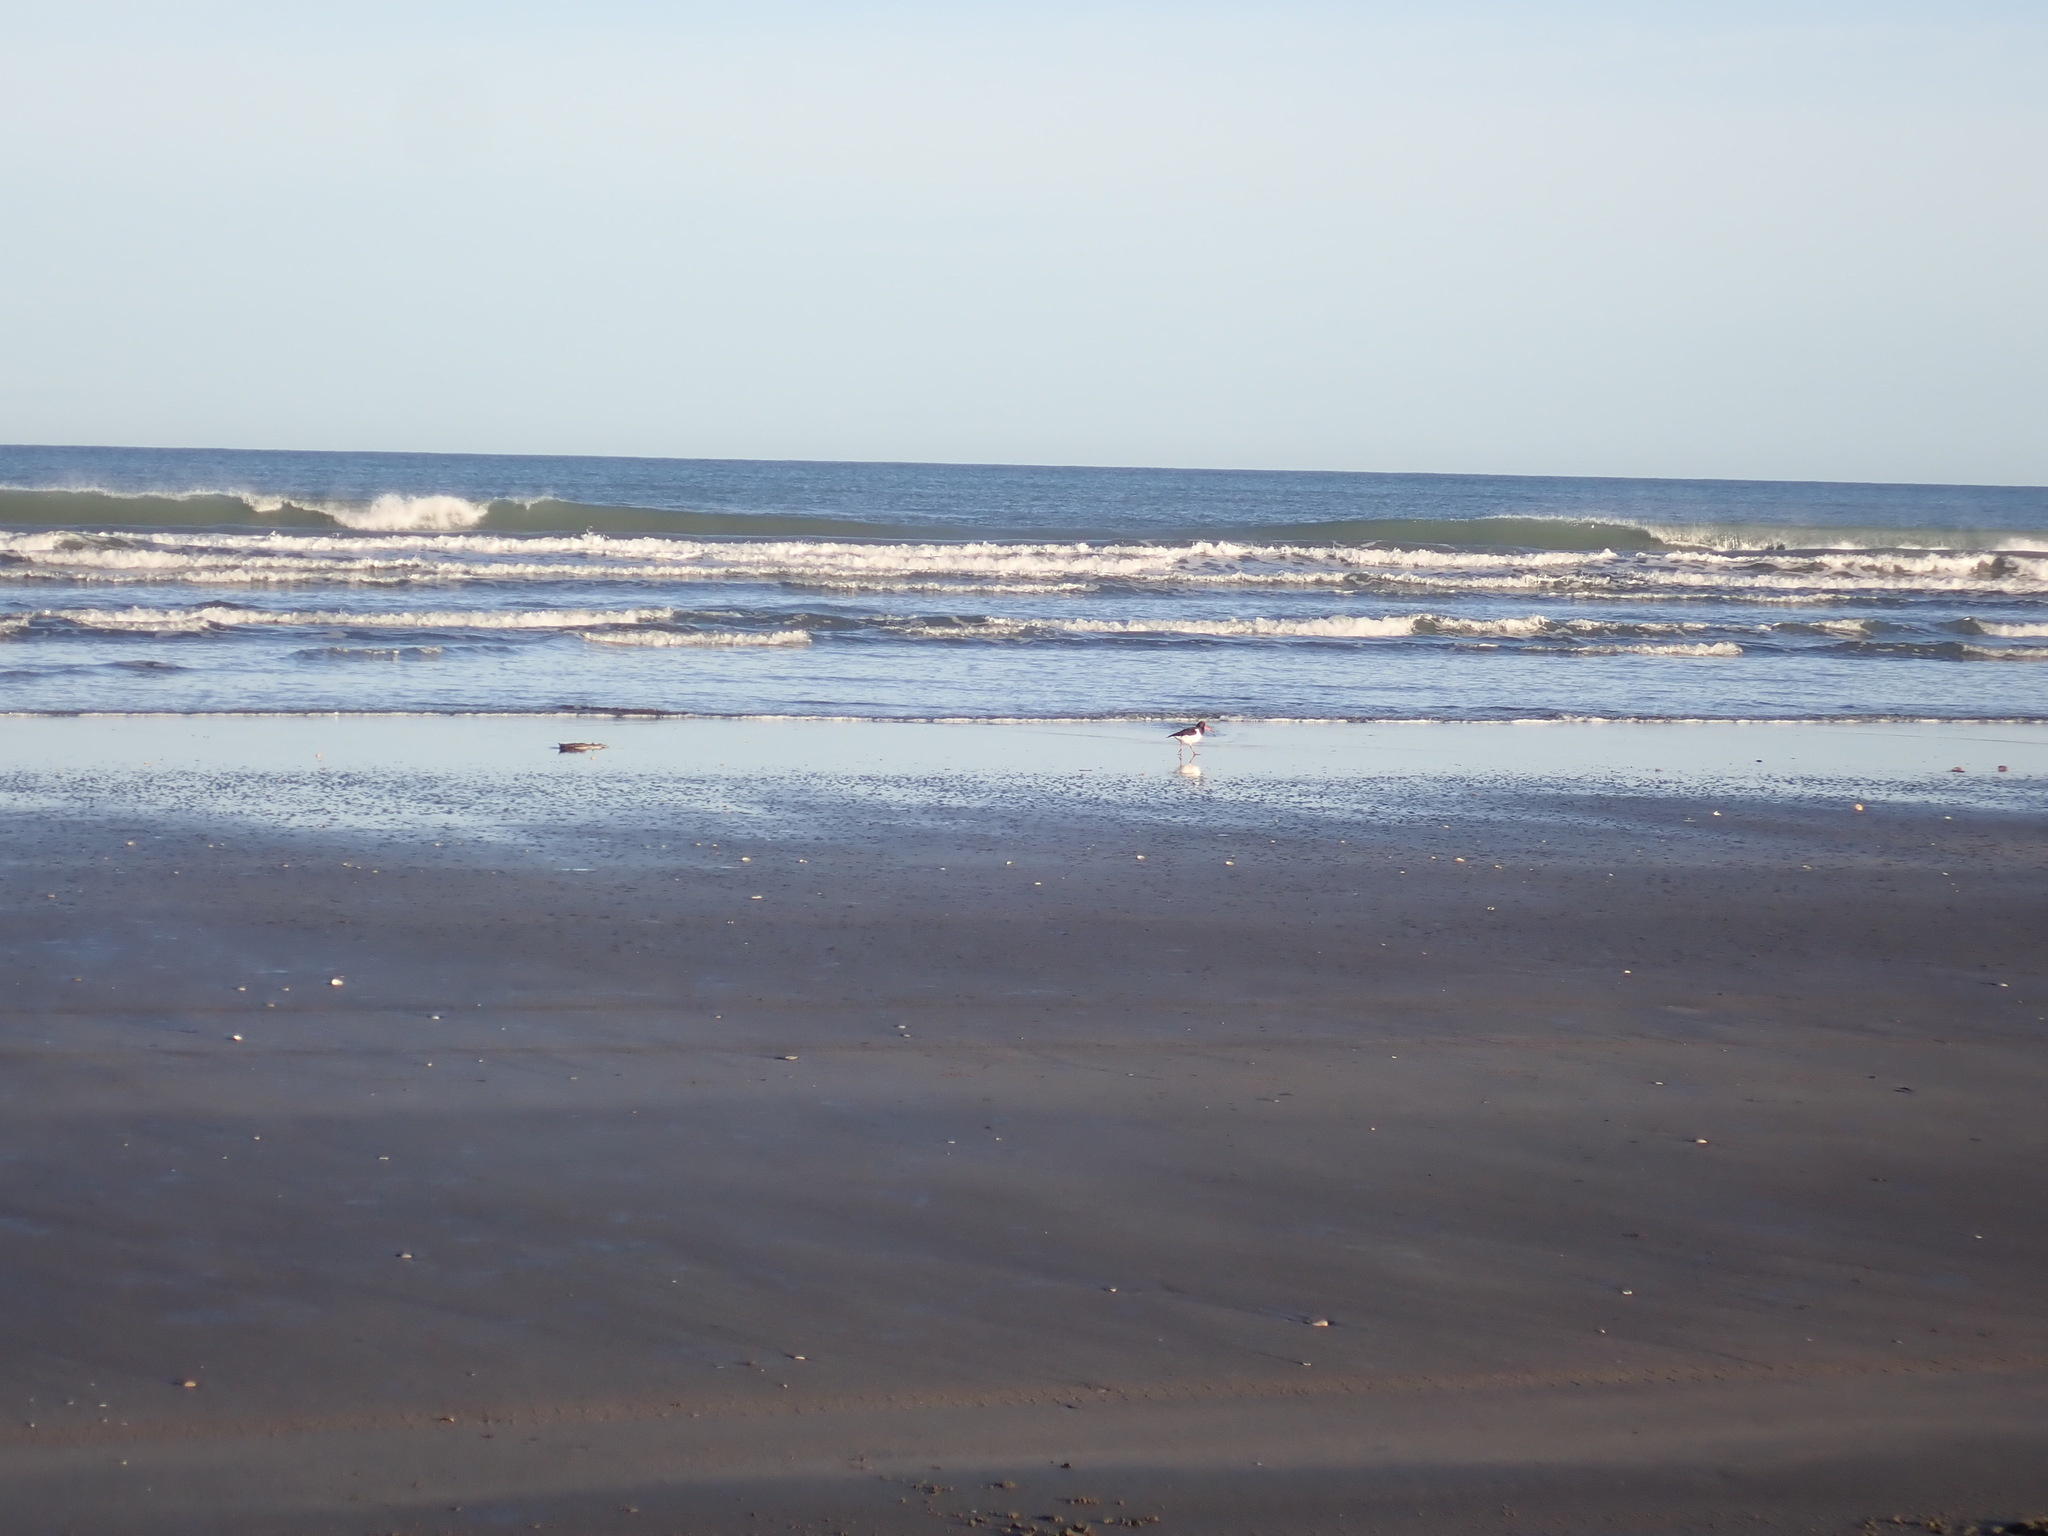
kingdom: Animalia
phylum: Chordata
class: Aves
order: Charadriiformes
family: Haematopodidae
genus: Haematopus
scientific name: Haematopus finschi
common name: South island oystercatcher
